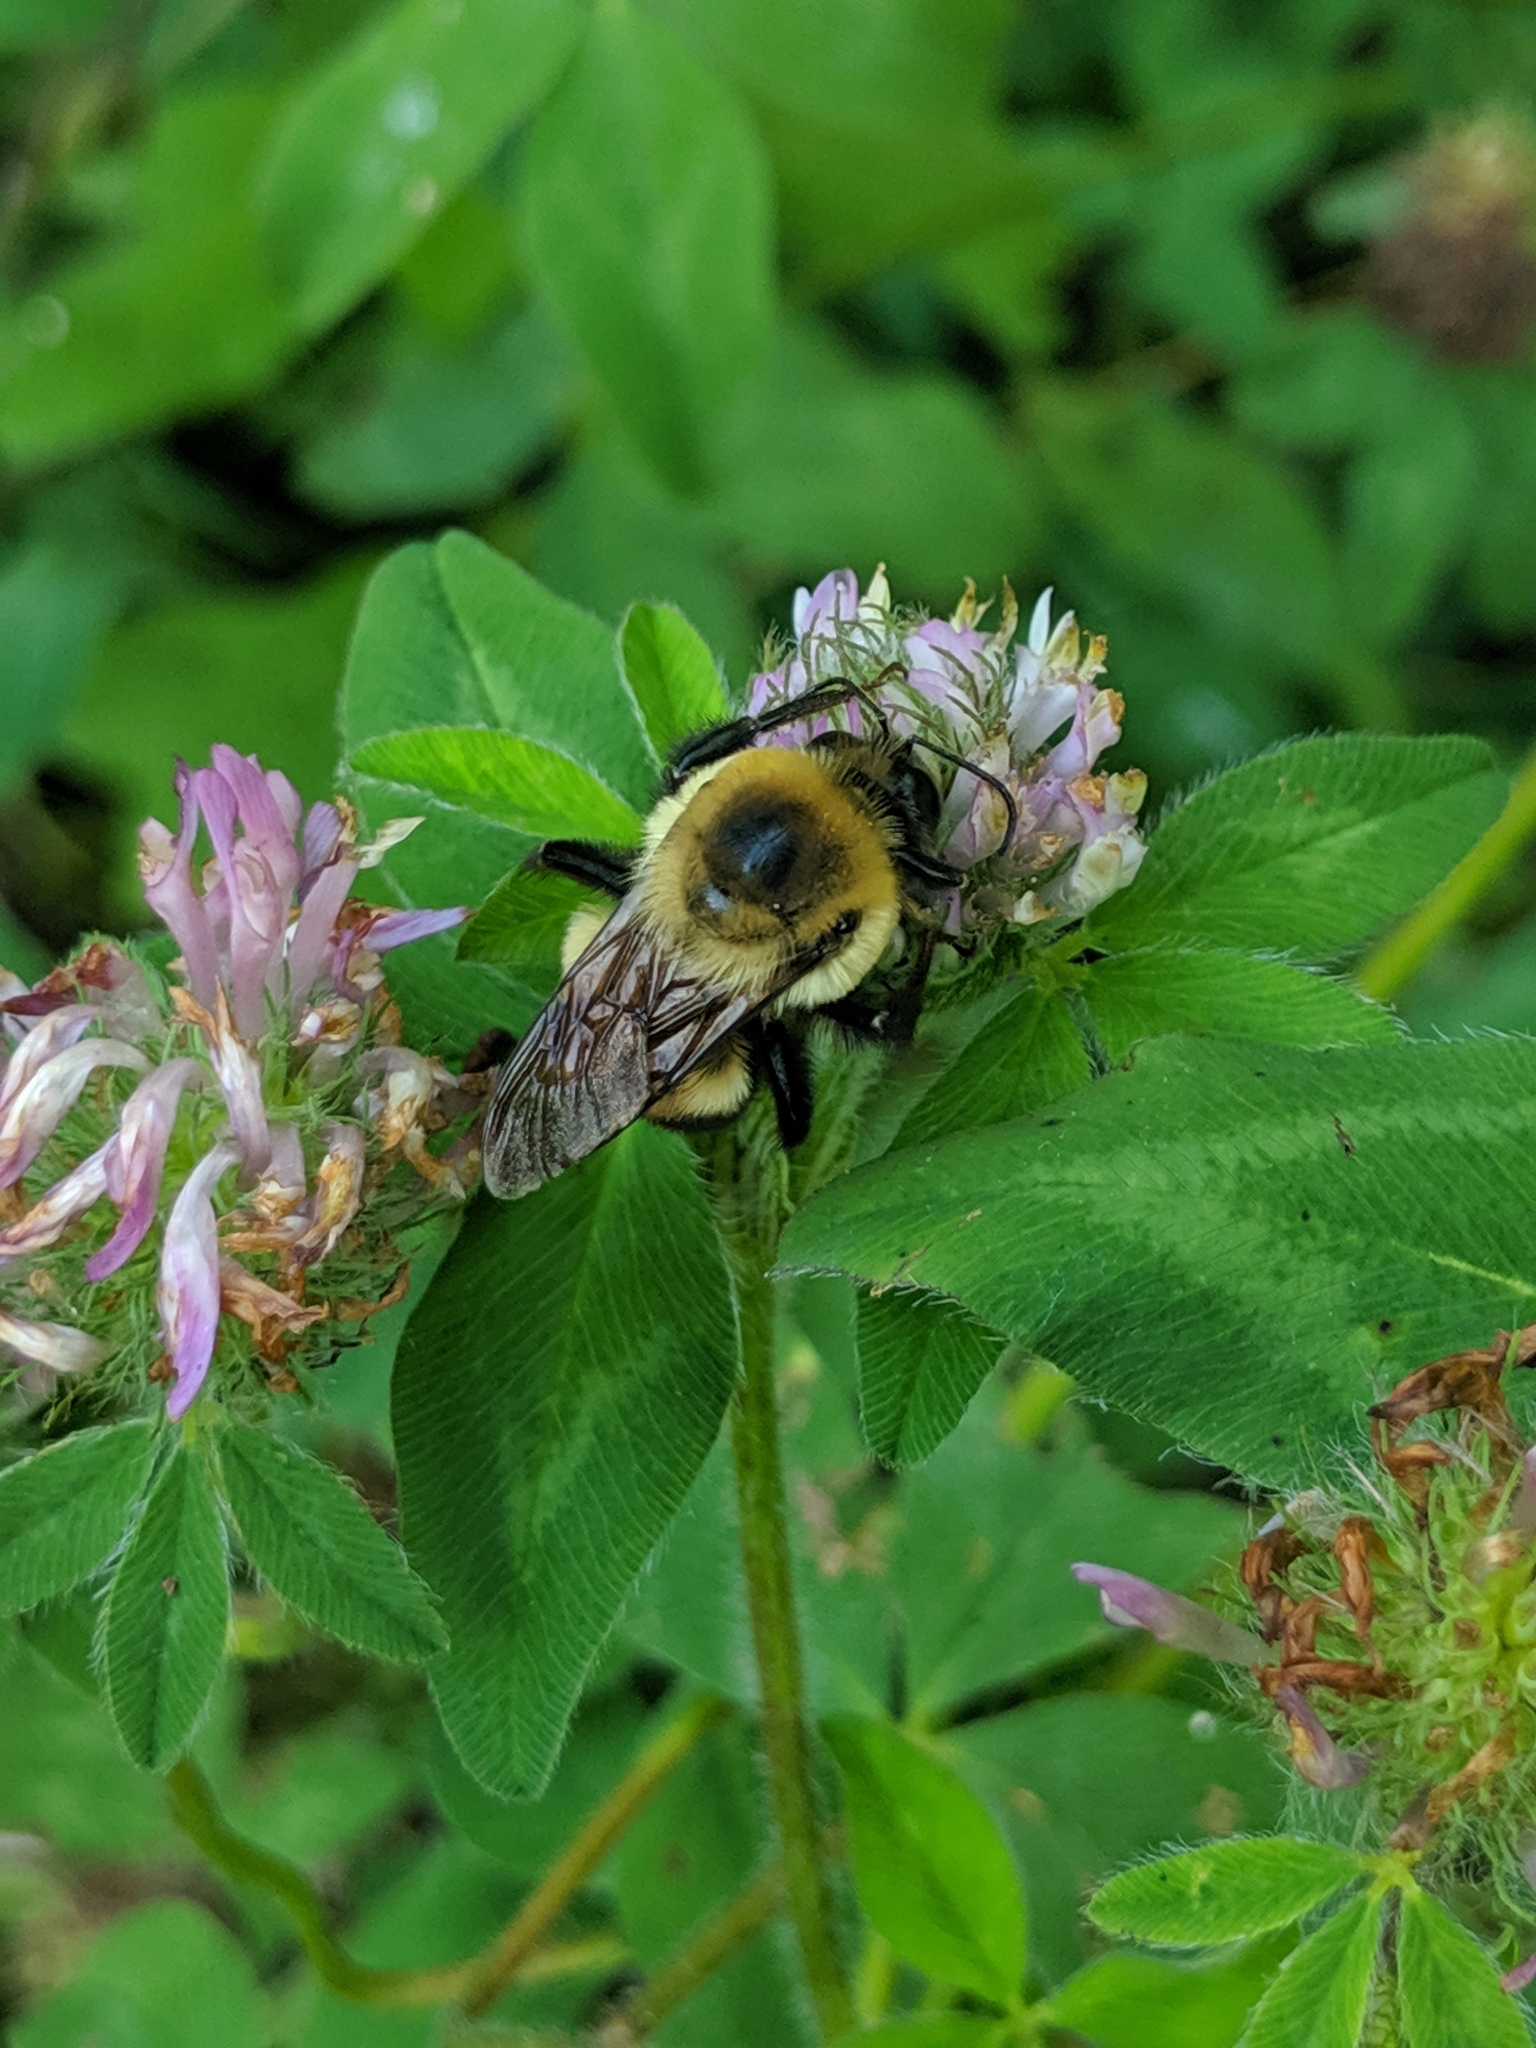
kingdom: Animalia
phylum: Arthropoda
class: Insecta
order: Hymenoptera
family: Apidae
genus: Bombus
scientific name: Bombus griseocollis
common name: Brown-belted bumble bee
